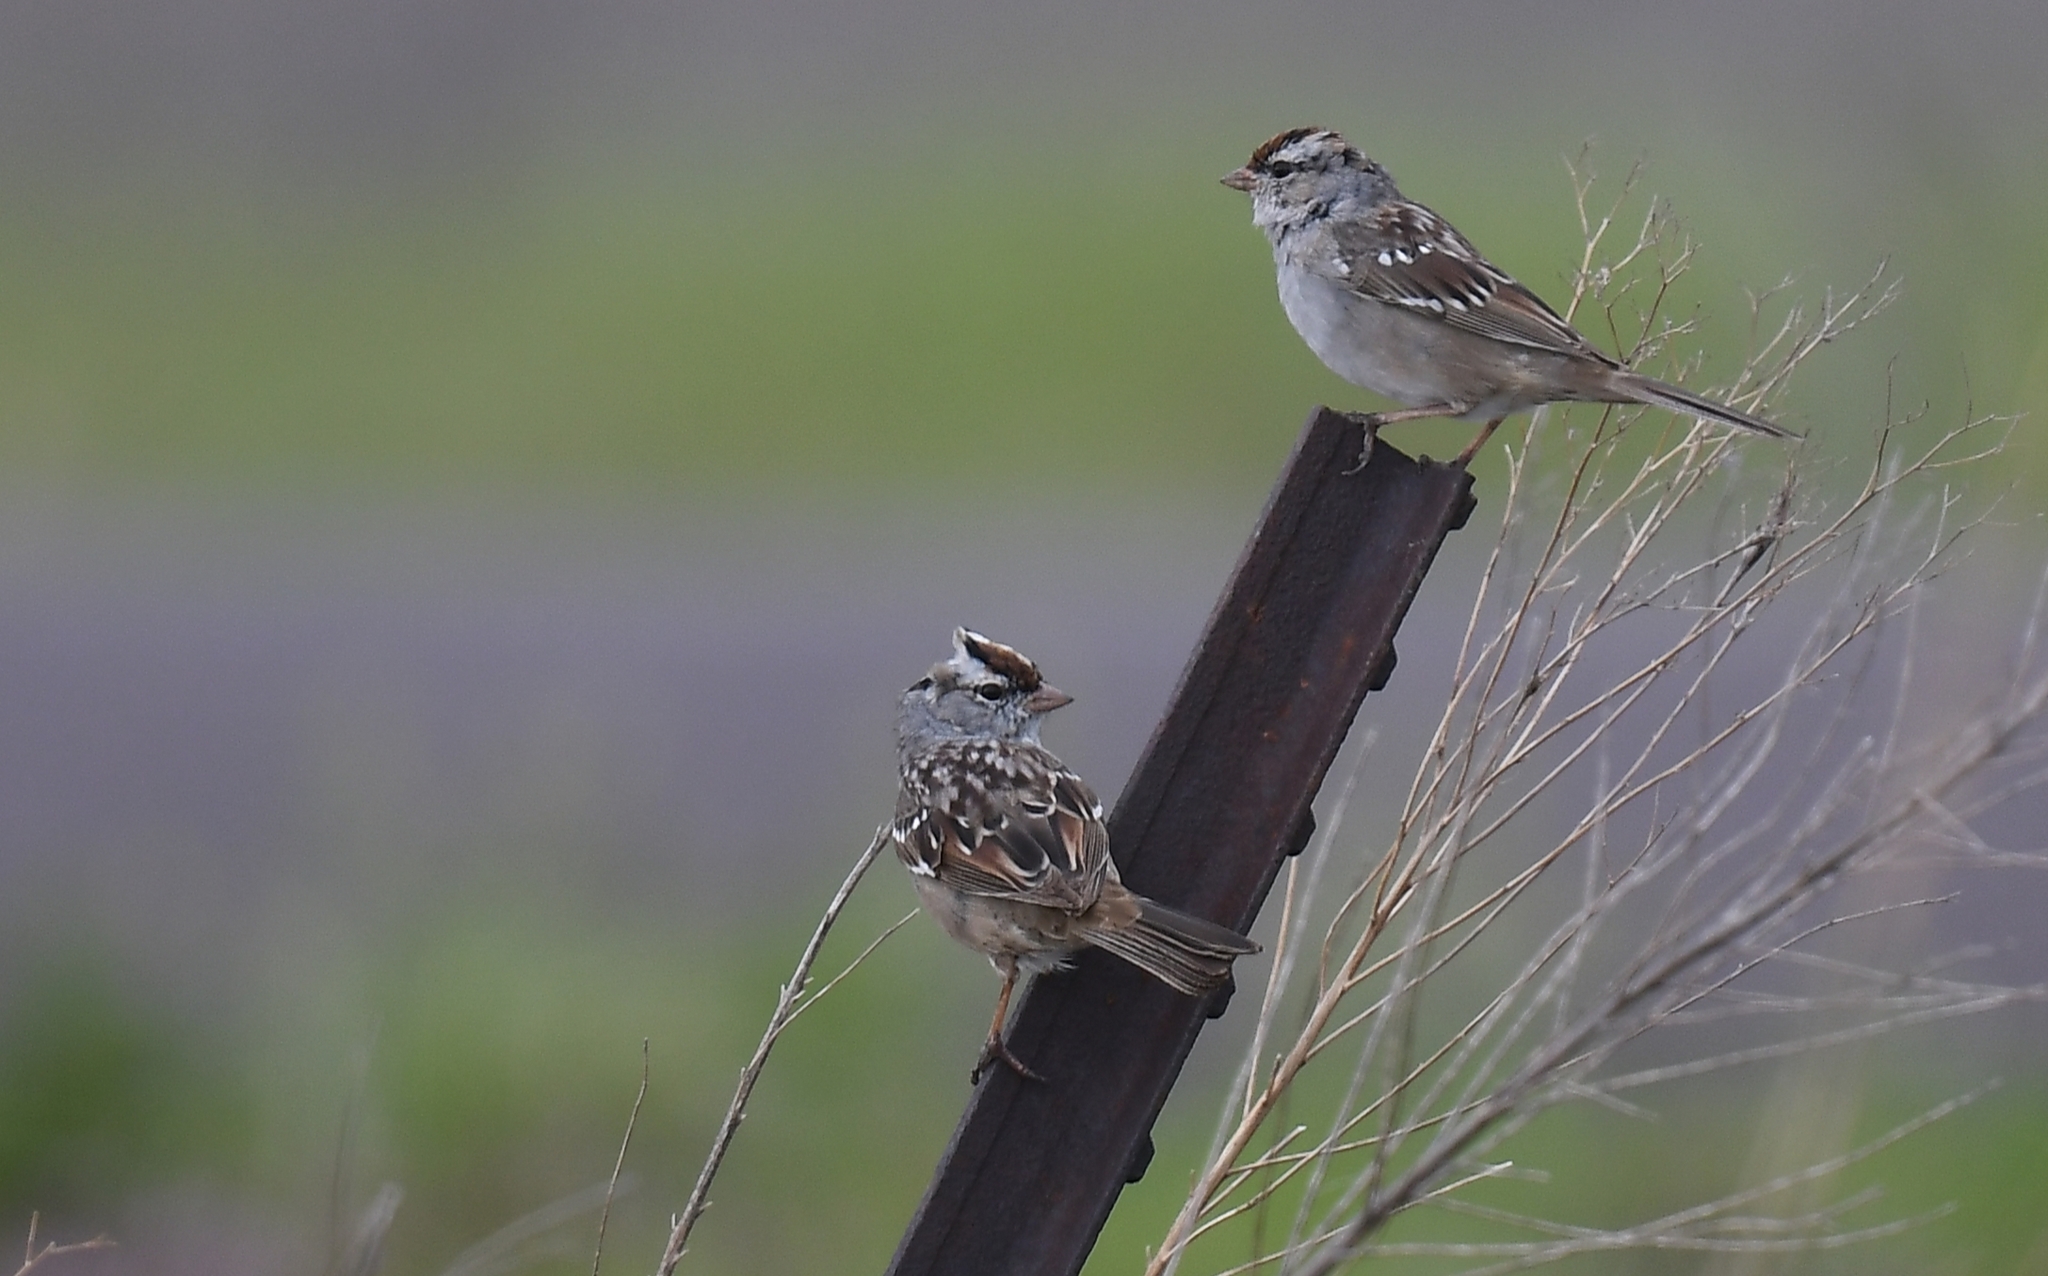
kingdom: Animalia
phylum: Chordata
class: Aves
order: Passeriformes
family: Passerellidae
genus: Zonotrichia
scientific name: Zonotrichia leucophrys
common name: White-crowned sparrow
